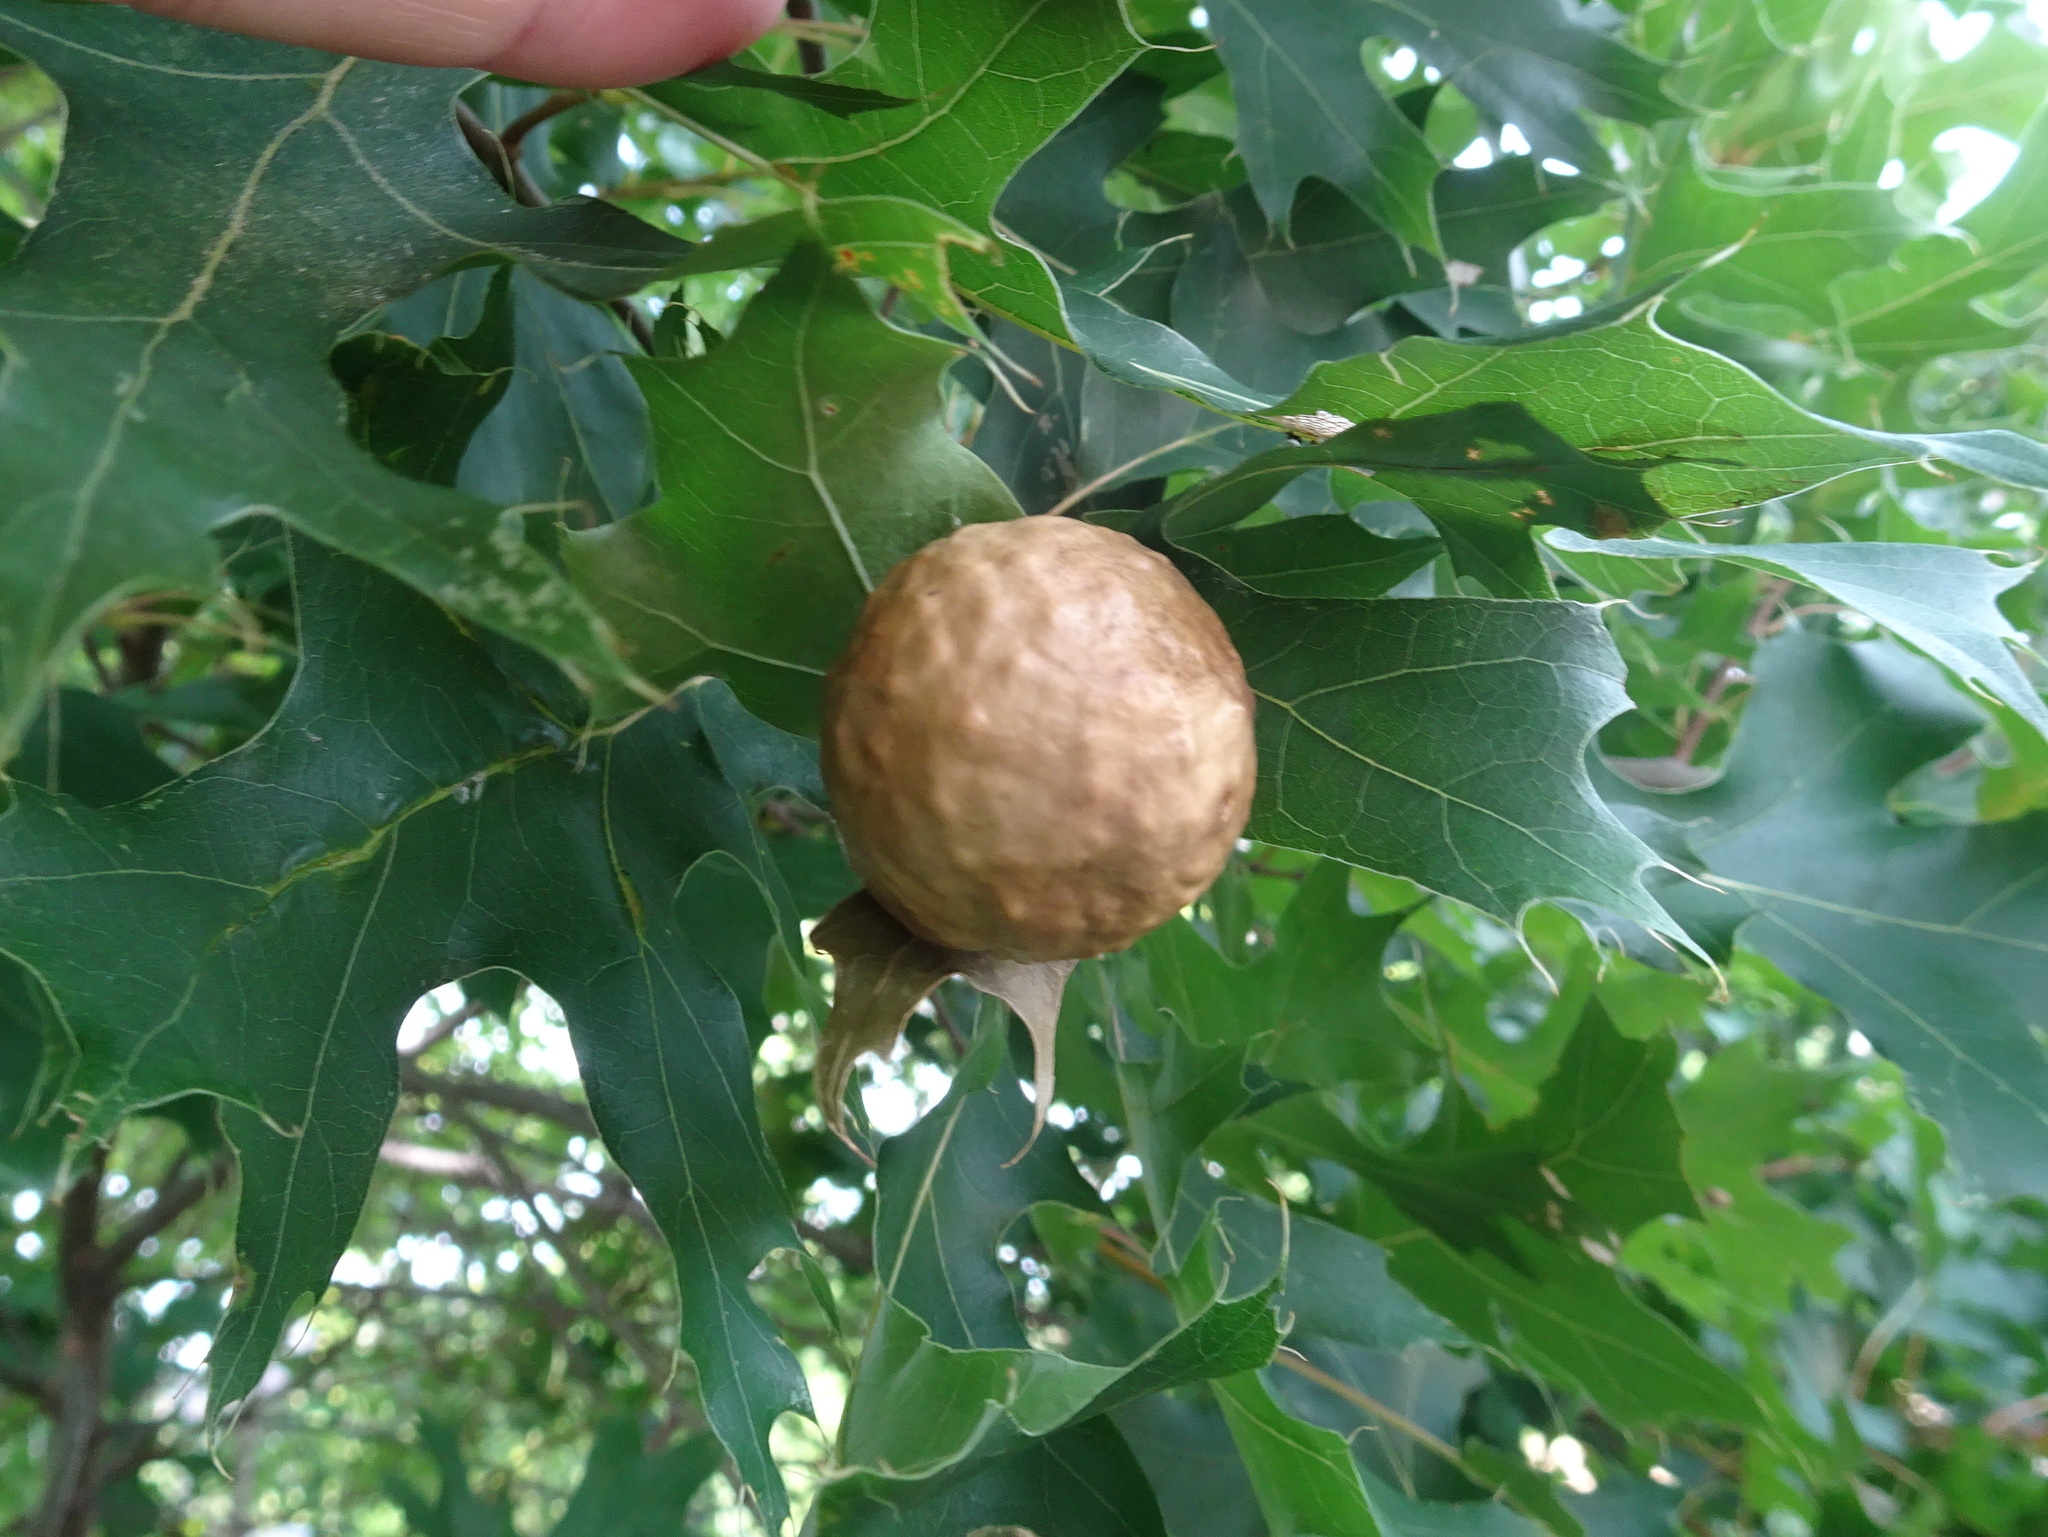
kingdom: Animalia
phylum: Arthropoda
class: Insecta
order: Hymenoptera
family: Cynipidae
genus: Amphibolips
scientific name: Amphibolips
